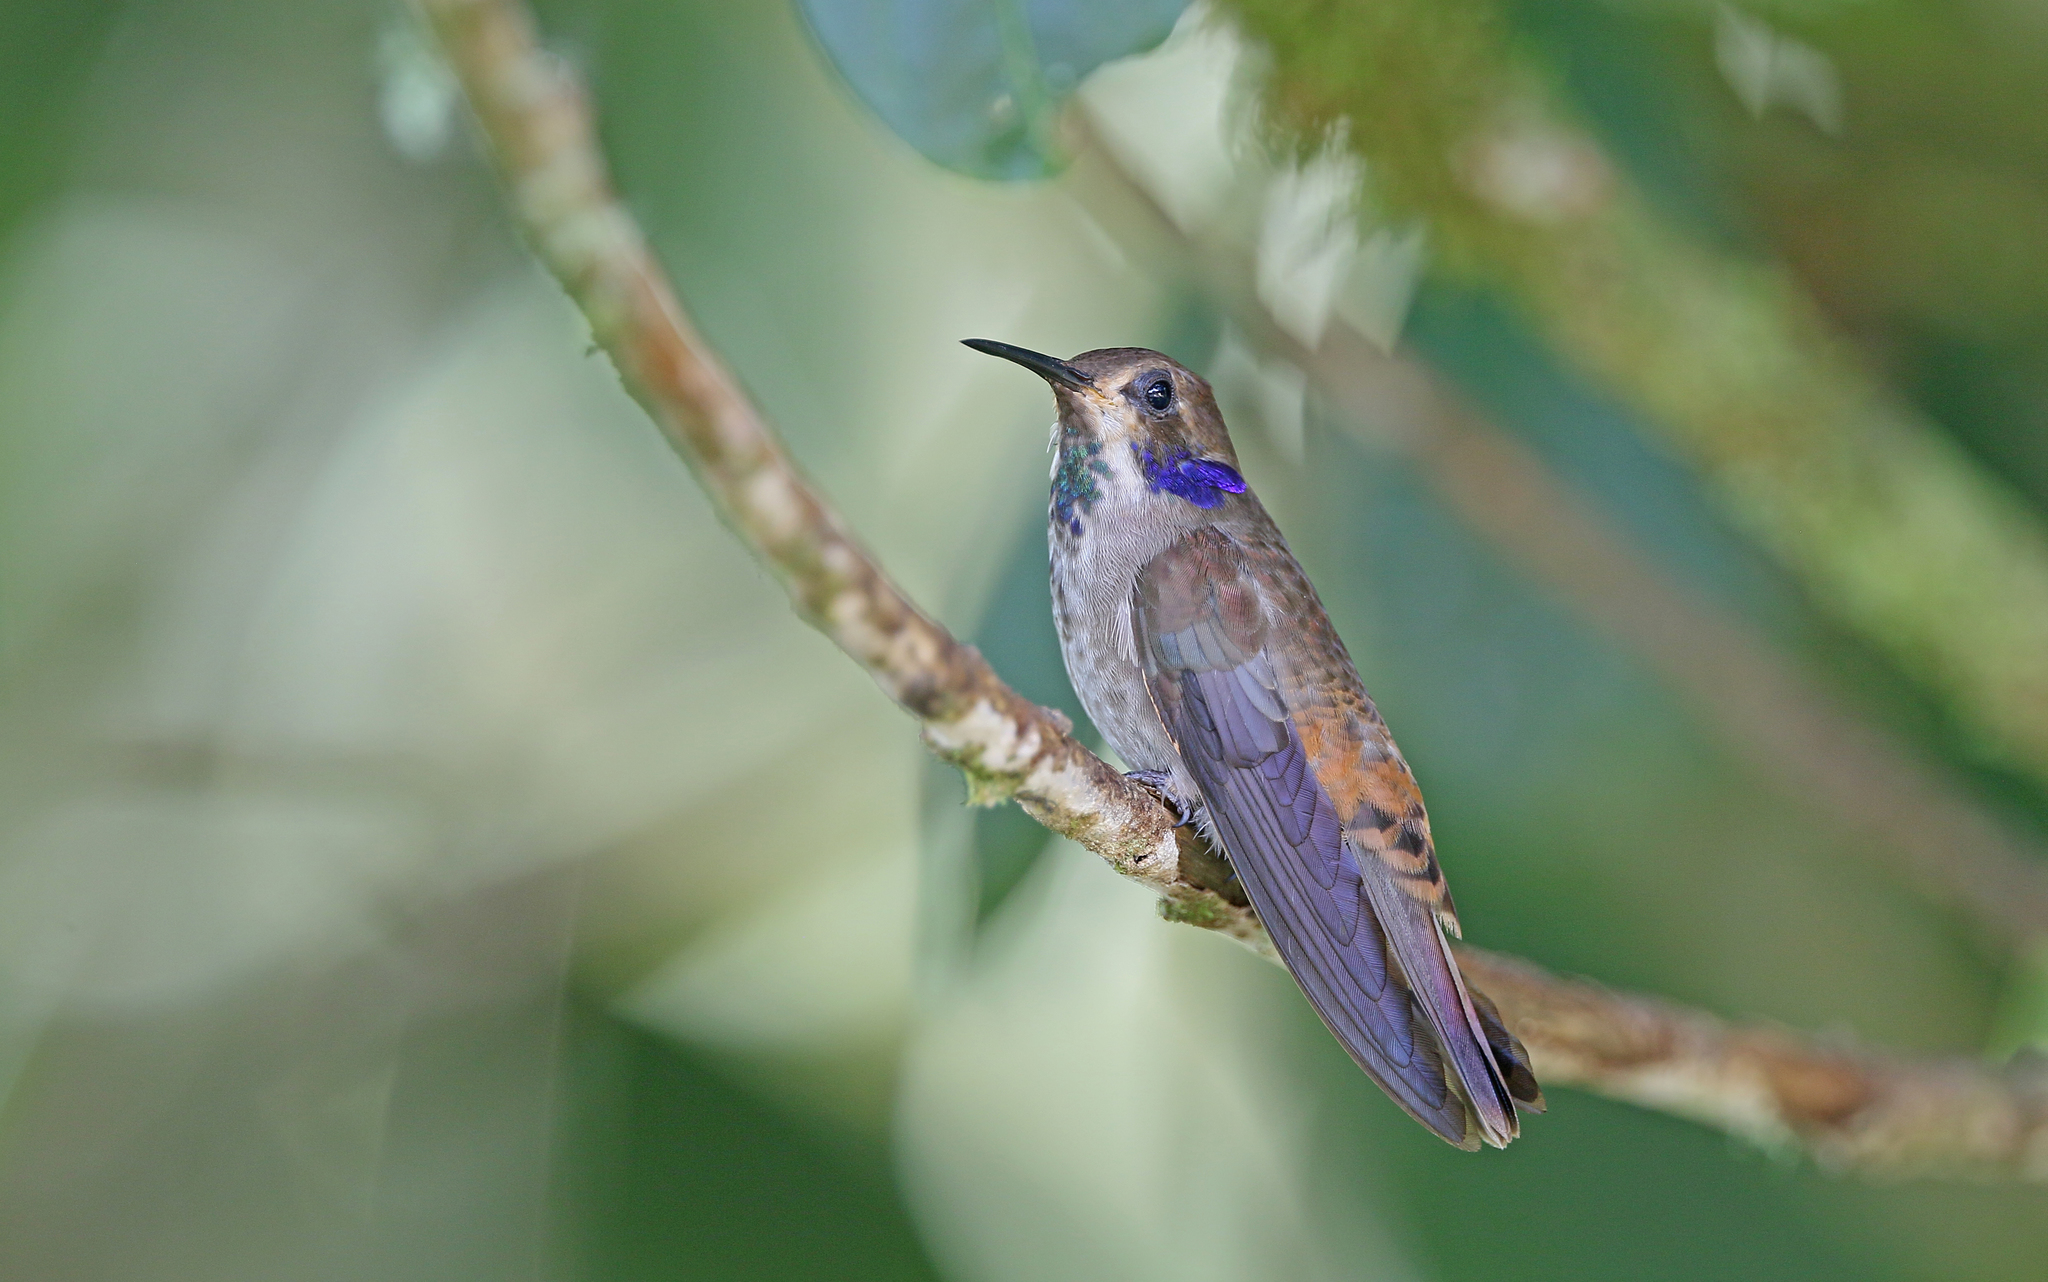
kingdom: Animalia
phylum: Chordata
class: Aves
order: Apodiformes
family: Trochilidae
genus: Colibri
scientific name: Colibri delphinae
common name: Brown violetear
